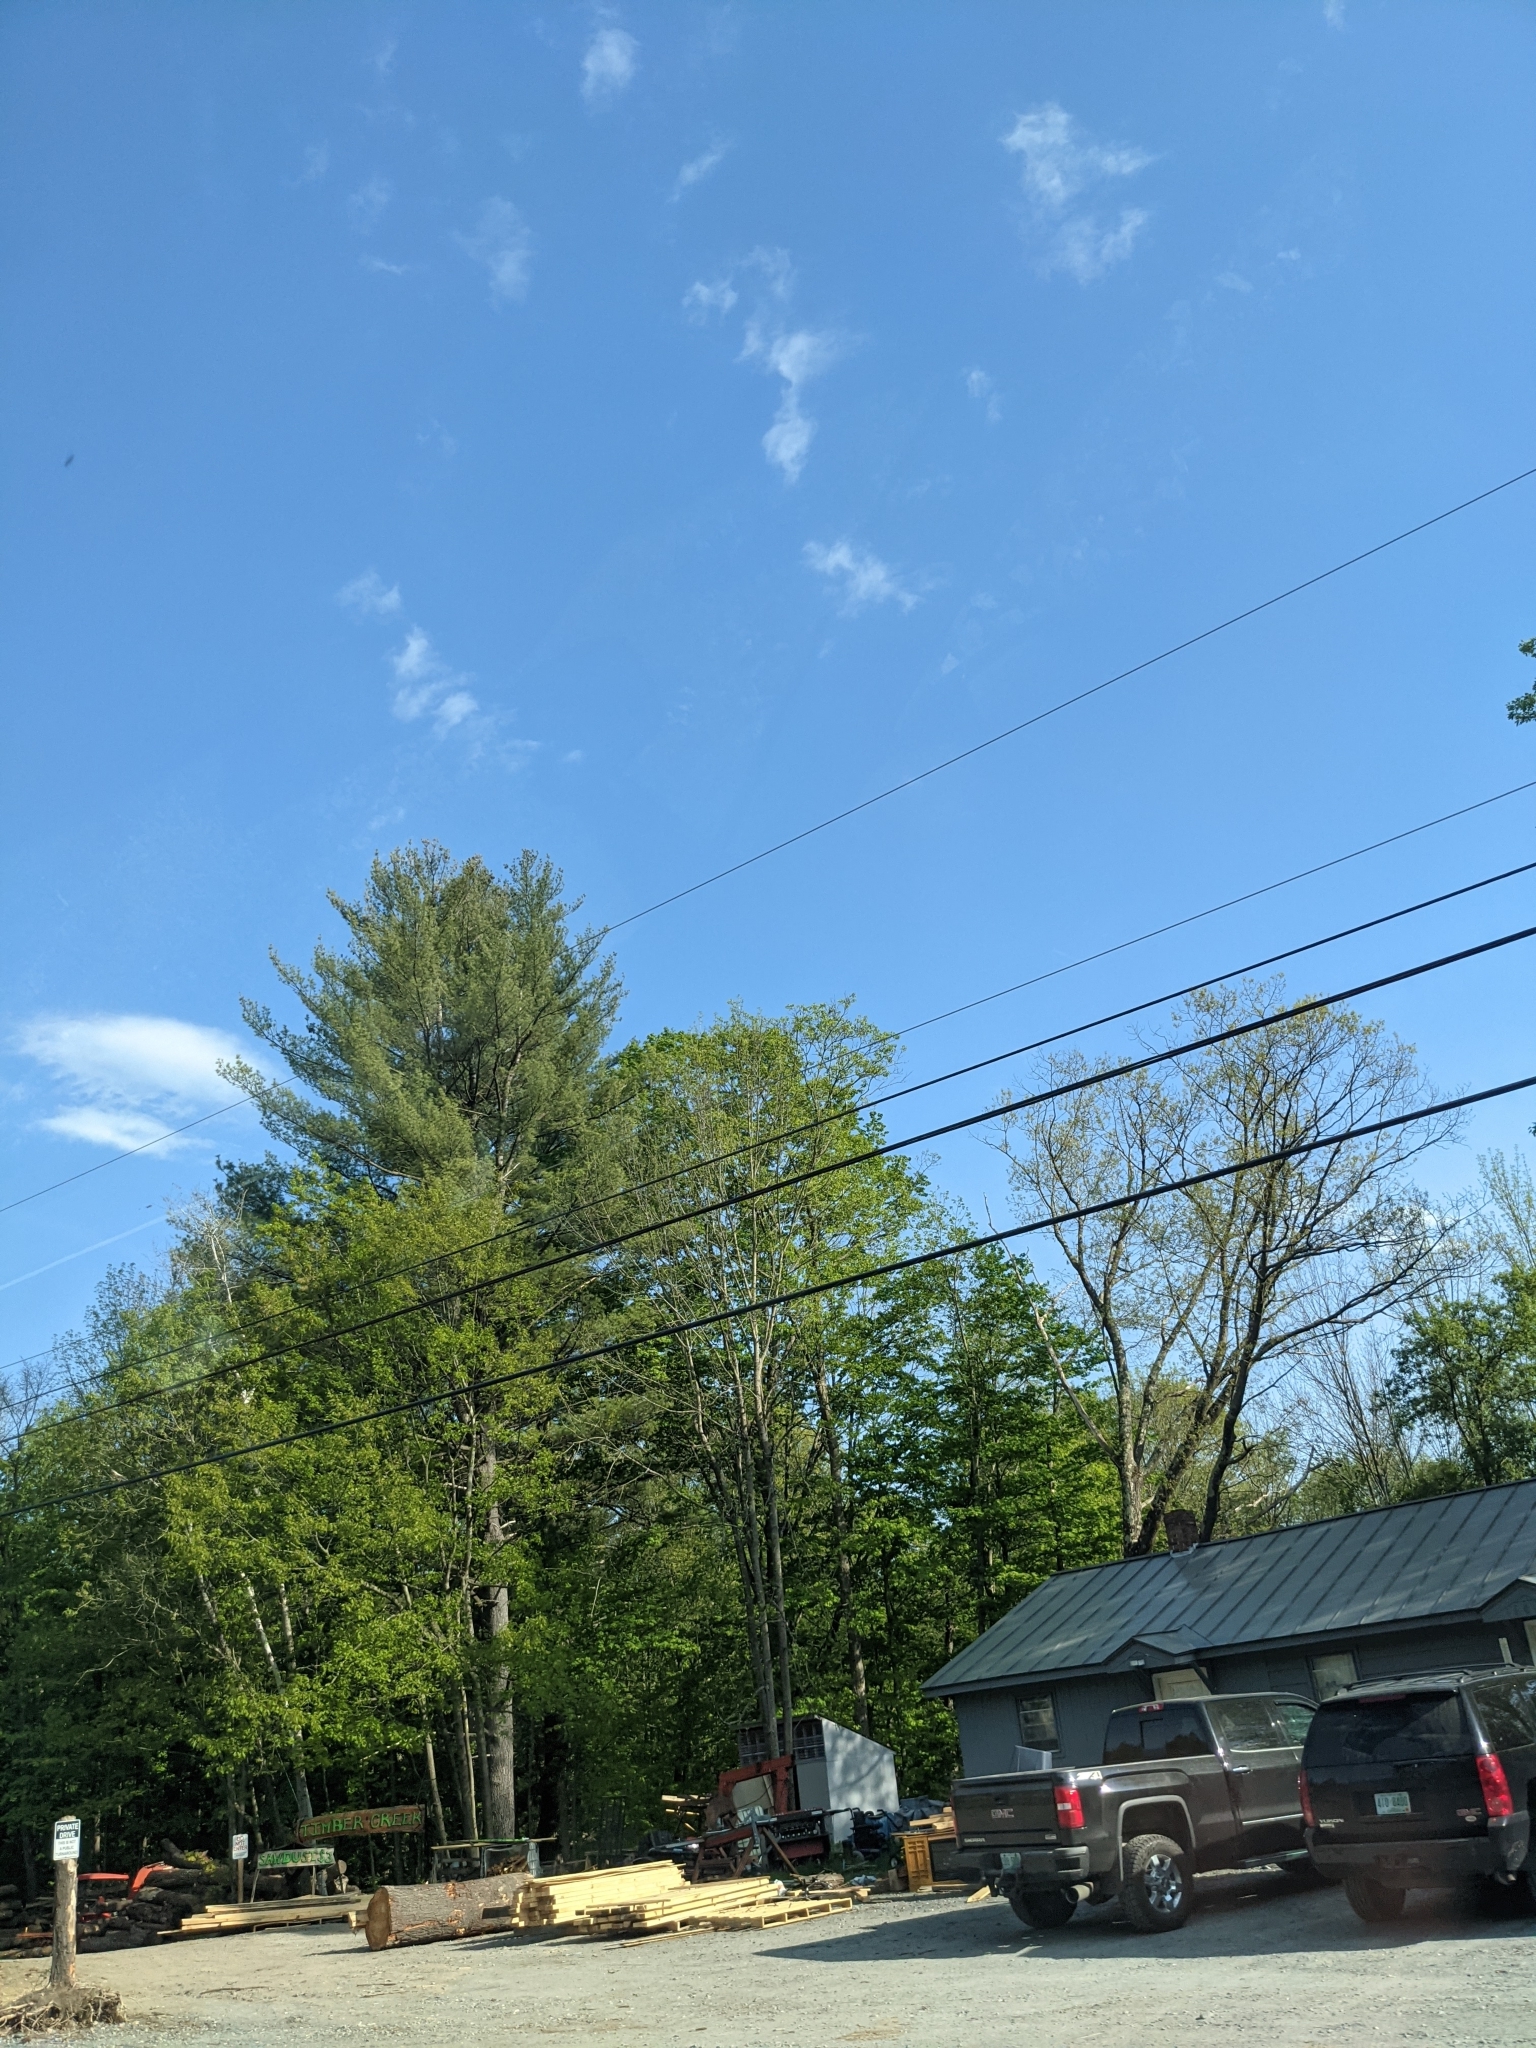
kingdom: Plantae
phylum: Tracheophyta
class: Pinopsida
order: Pinales
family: Pinaceae
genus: Pinus
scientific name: Pinus strobus
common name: Weymouth pine
